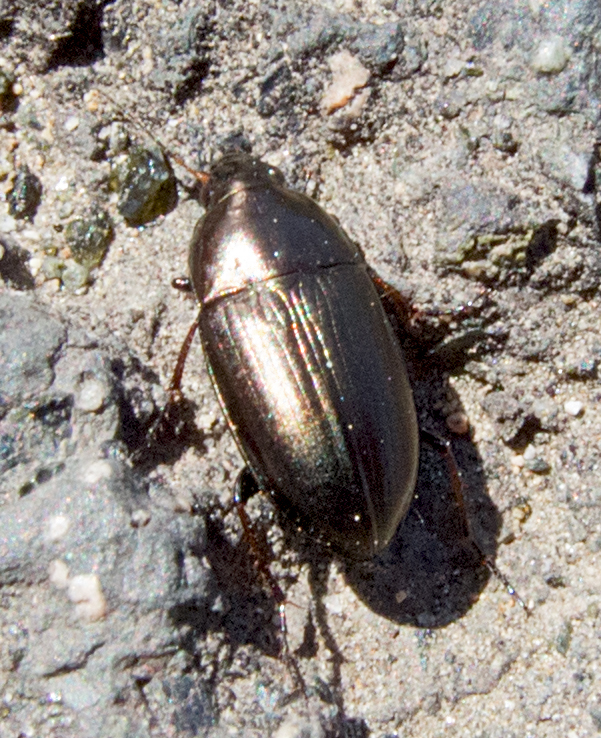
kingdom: Animalia
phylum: Arthropoda
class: Insecta
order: Coleoptera
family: Carabidae
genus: Amara
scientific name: Amara aenea
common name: Common sun beetle
